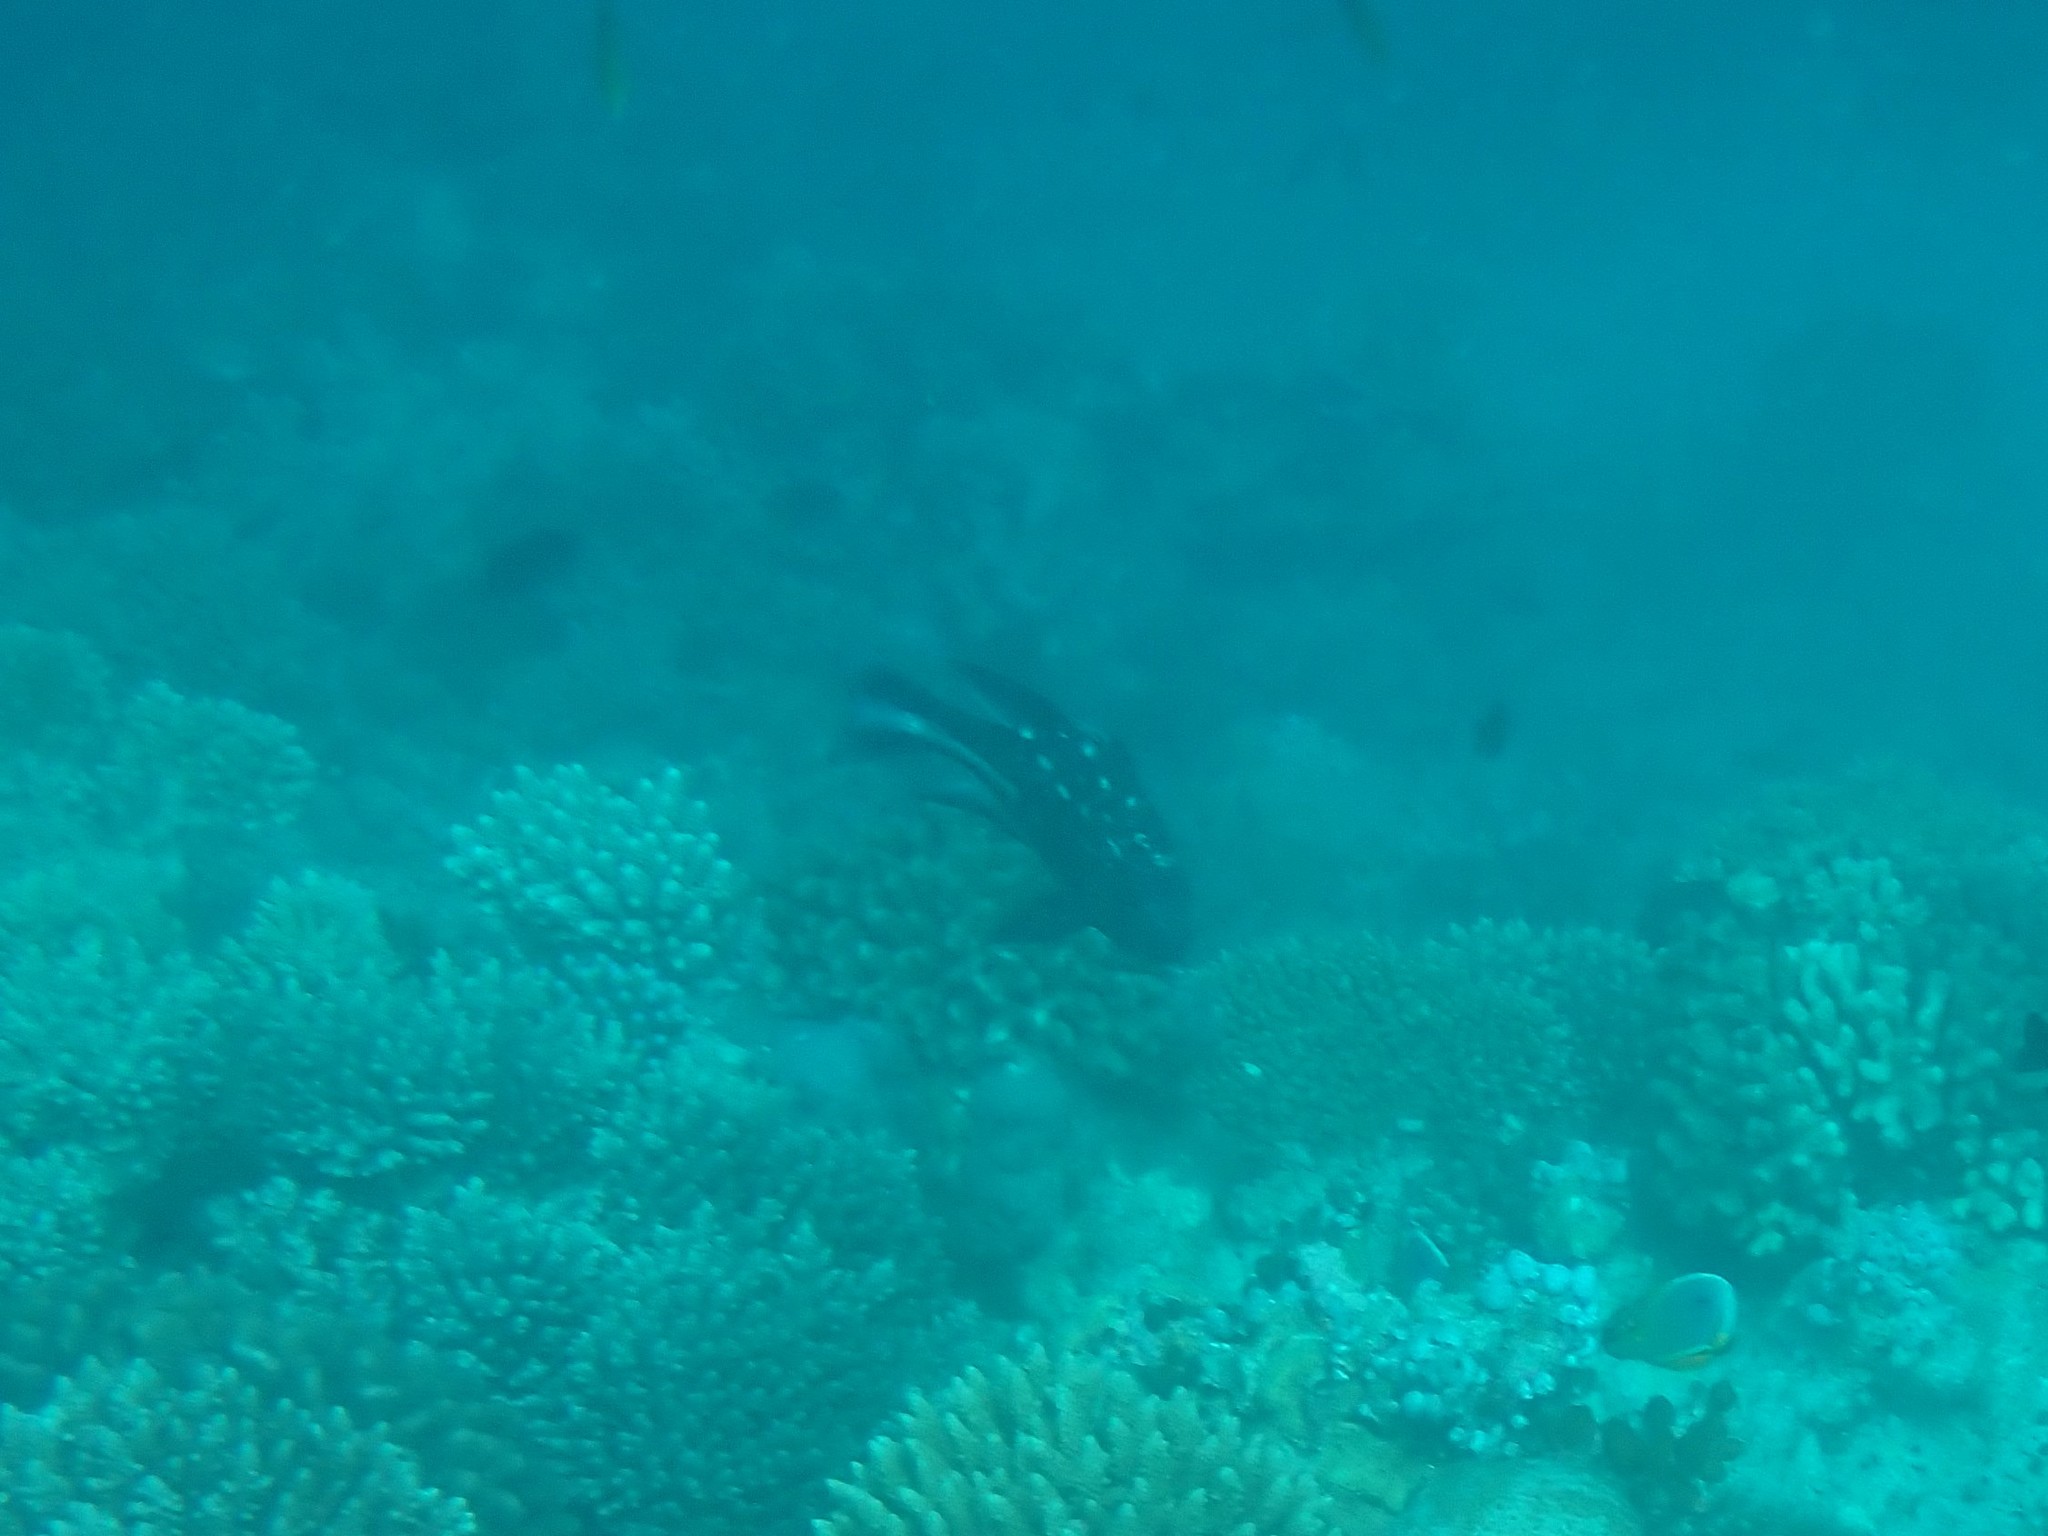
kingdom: Animalia
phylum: Chordata
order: Perciformes
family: Lutjanidae
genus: Macolor
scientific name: Macolor macularis
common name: Midnight snapper
